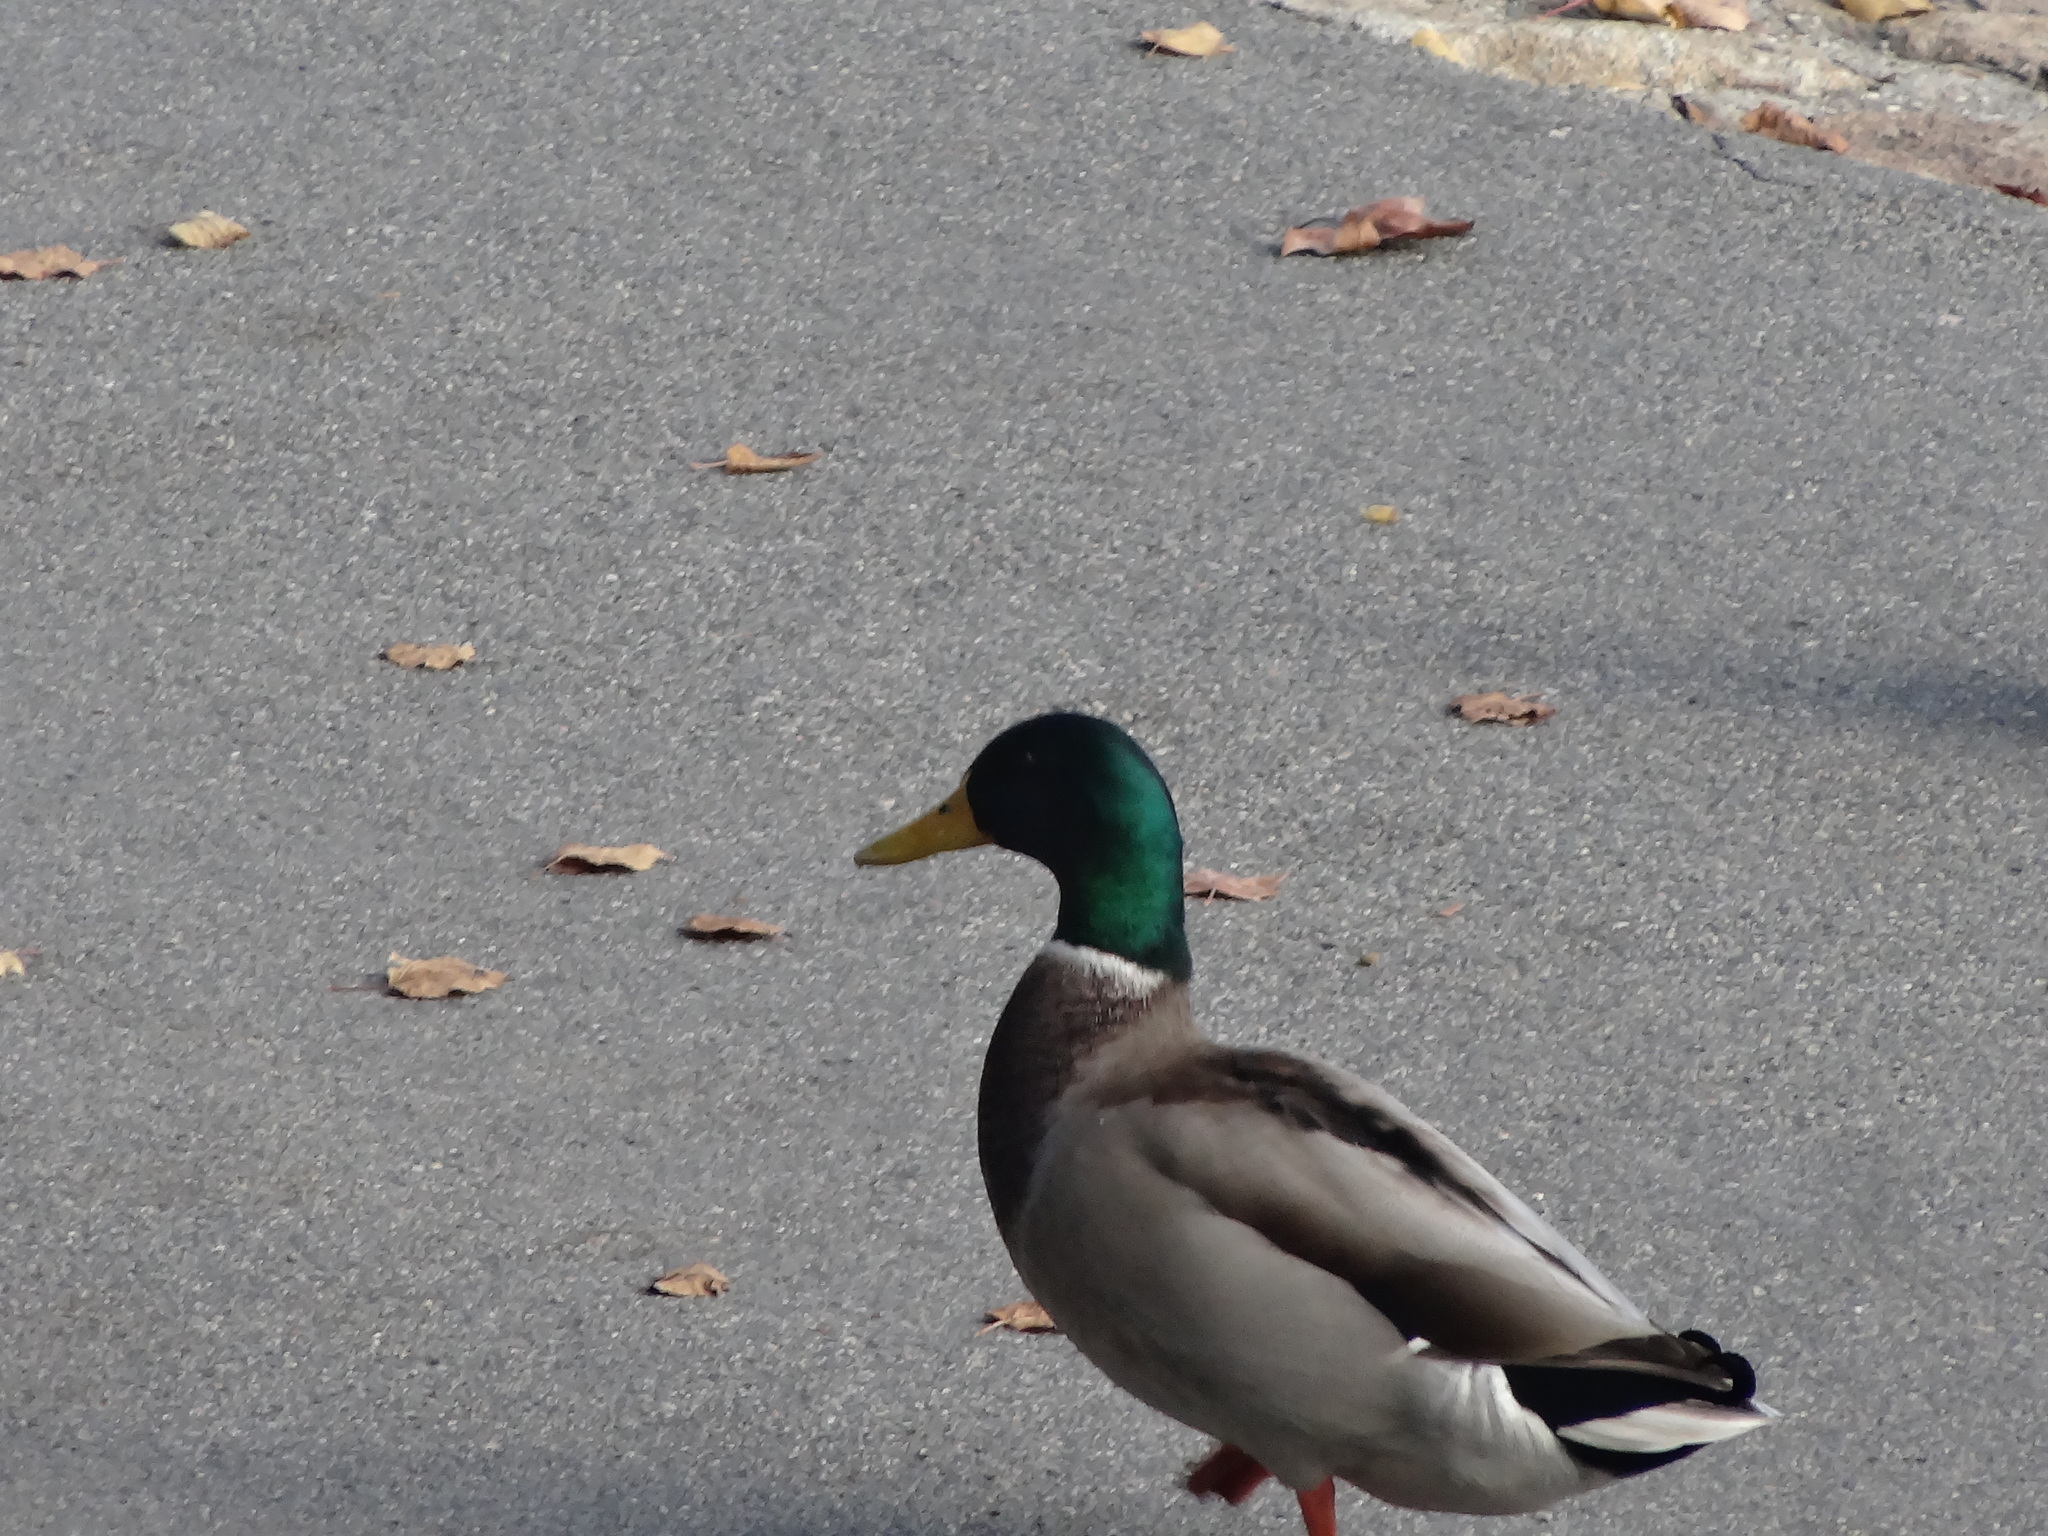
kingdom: Animalia
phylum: Chordata
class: Aves
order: Anseriformes
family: Anatidae
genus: Anas
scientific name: Anas platyrhynchos
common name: Mallard
